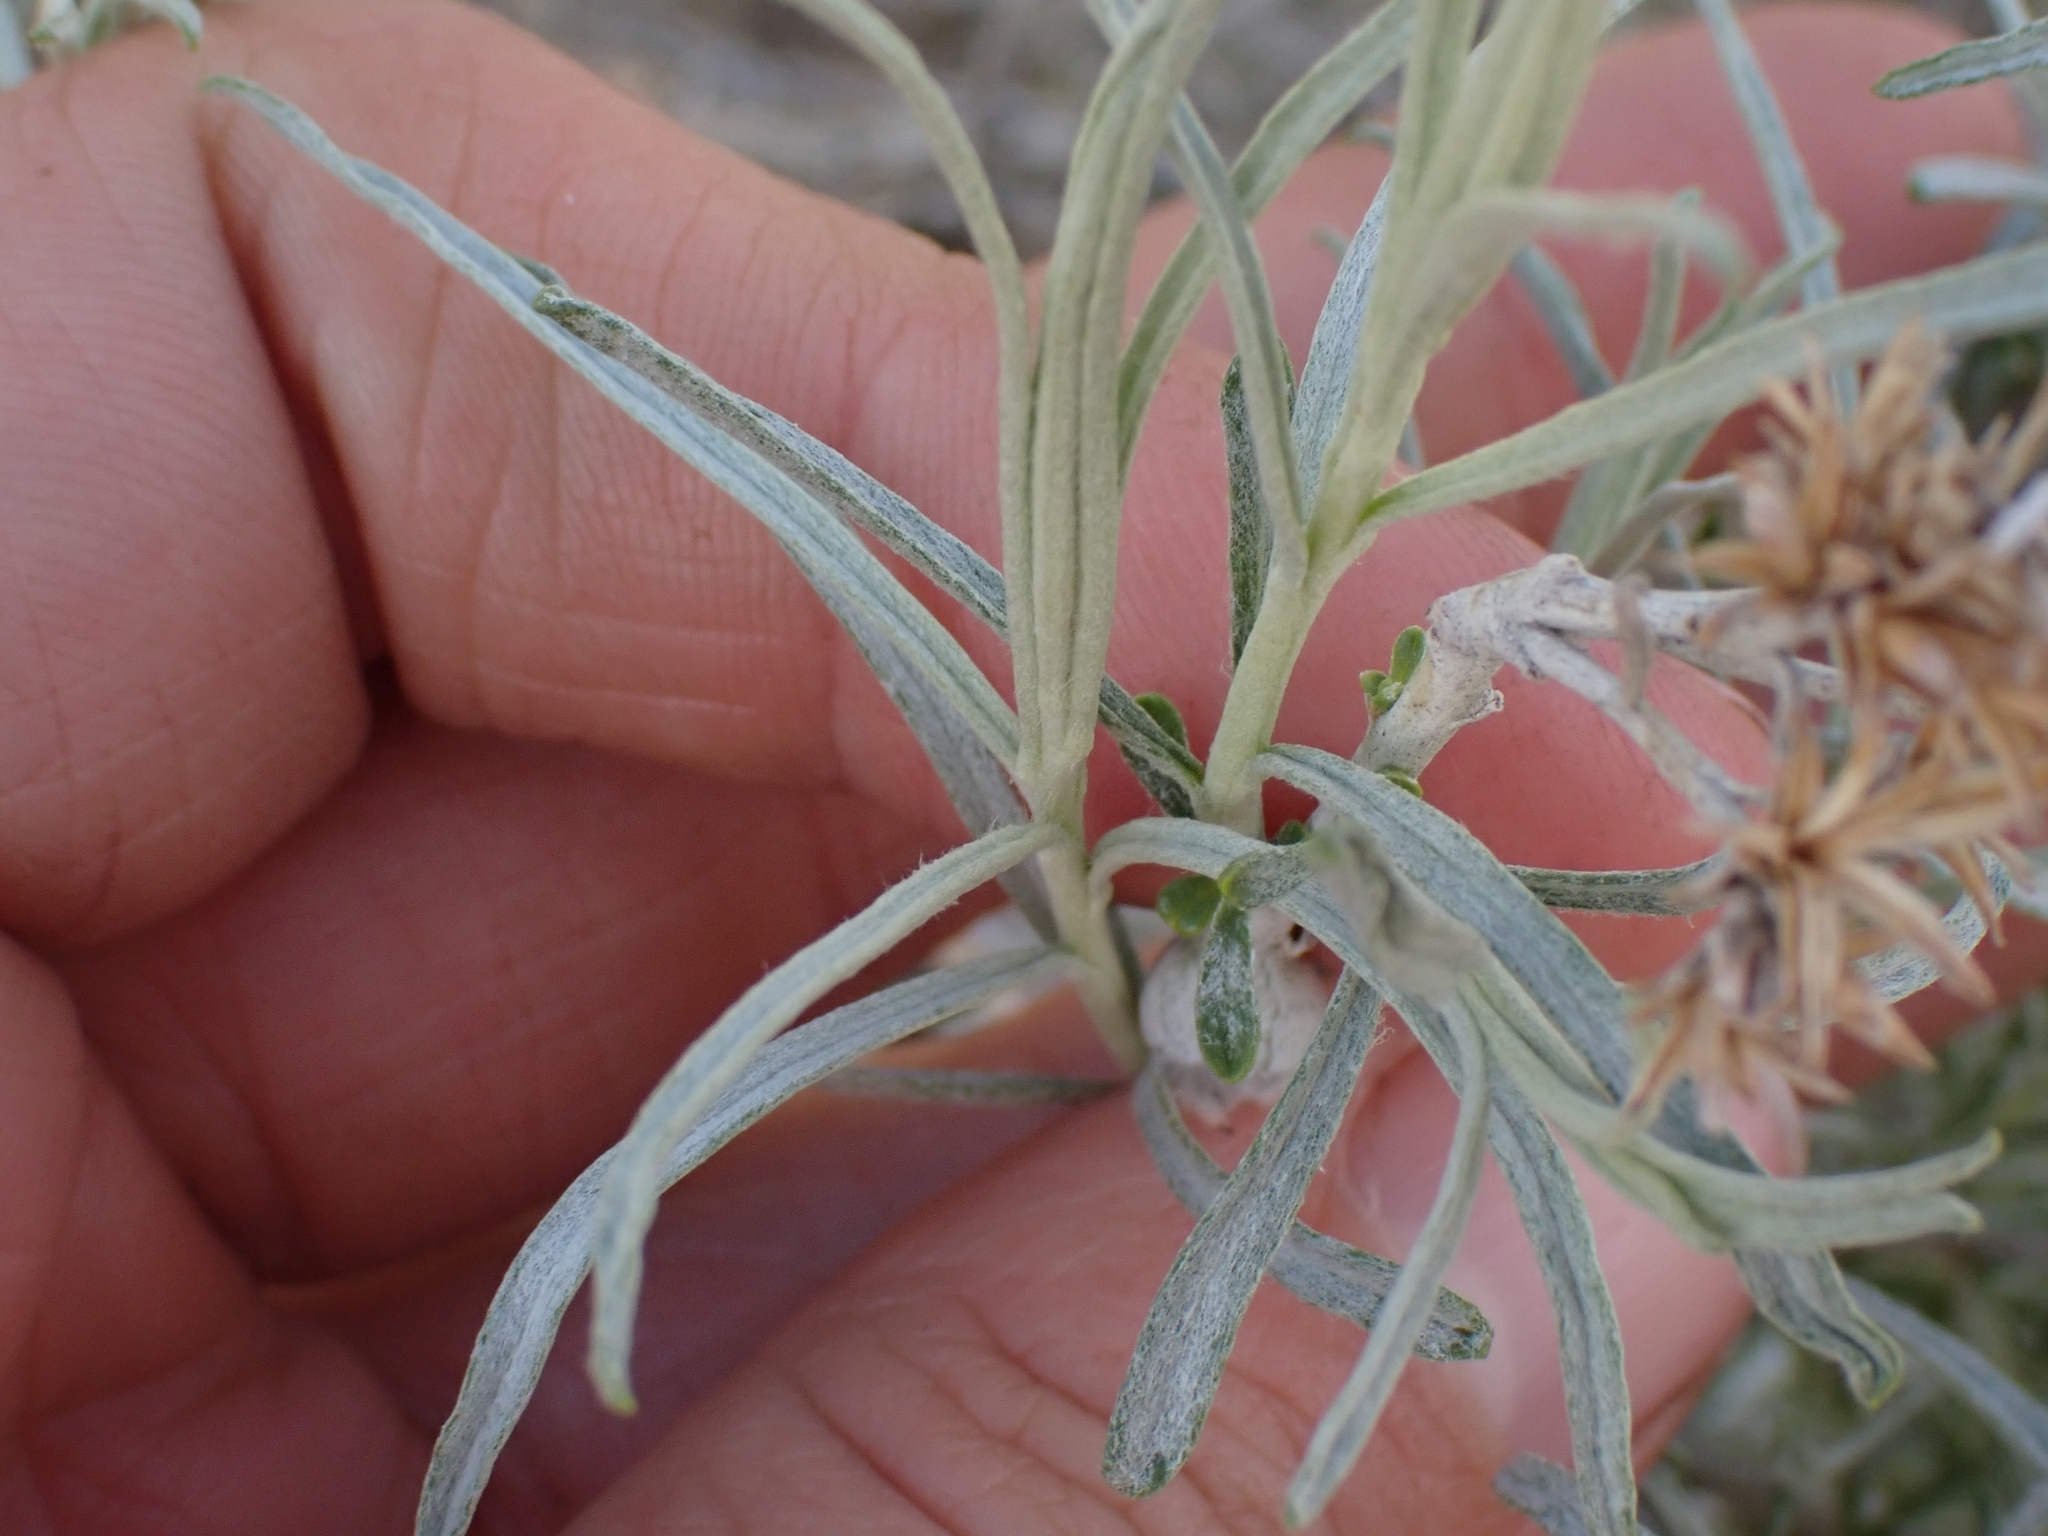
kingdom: Plantae
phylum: Tracheophyta
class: Magnoliopsida
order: Asterales
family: Asteraceae
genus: Ericameria
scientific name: Ericameria nauseosa
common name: Rubber rabbitbrush
